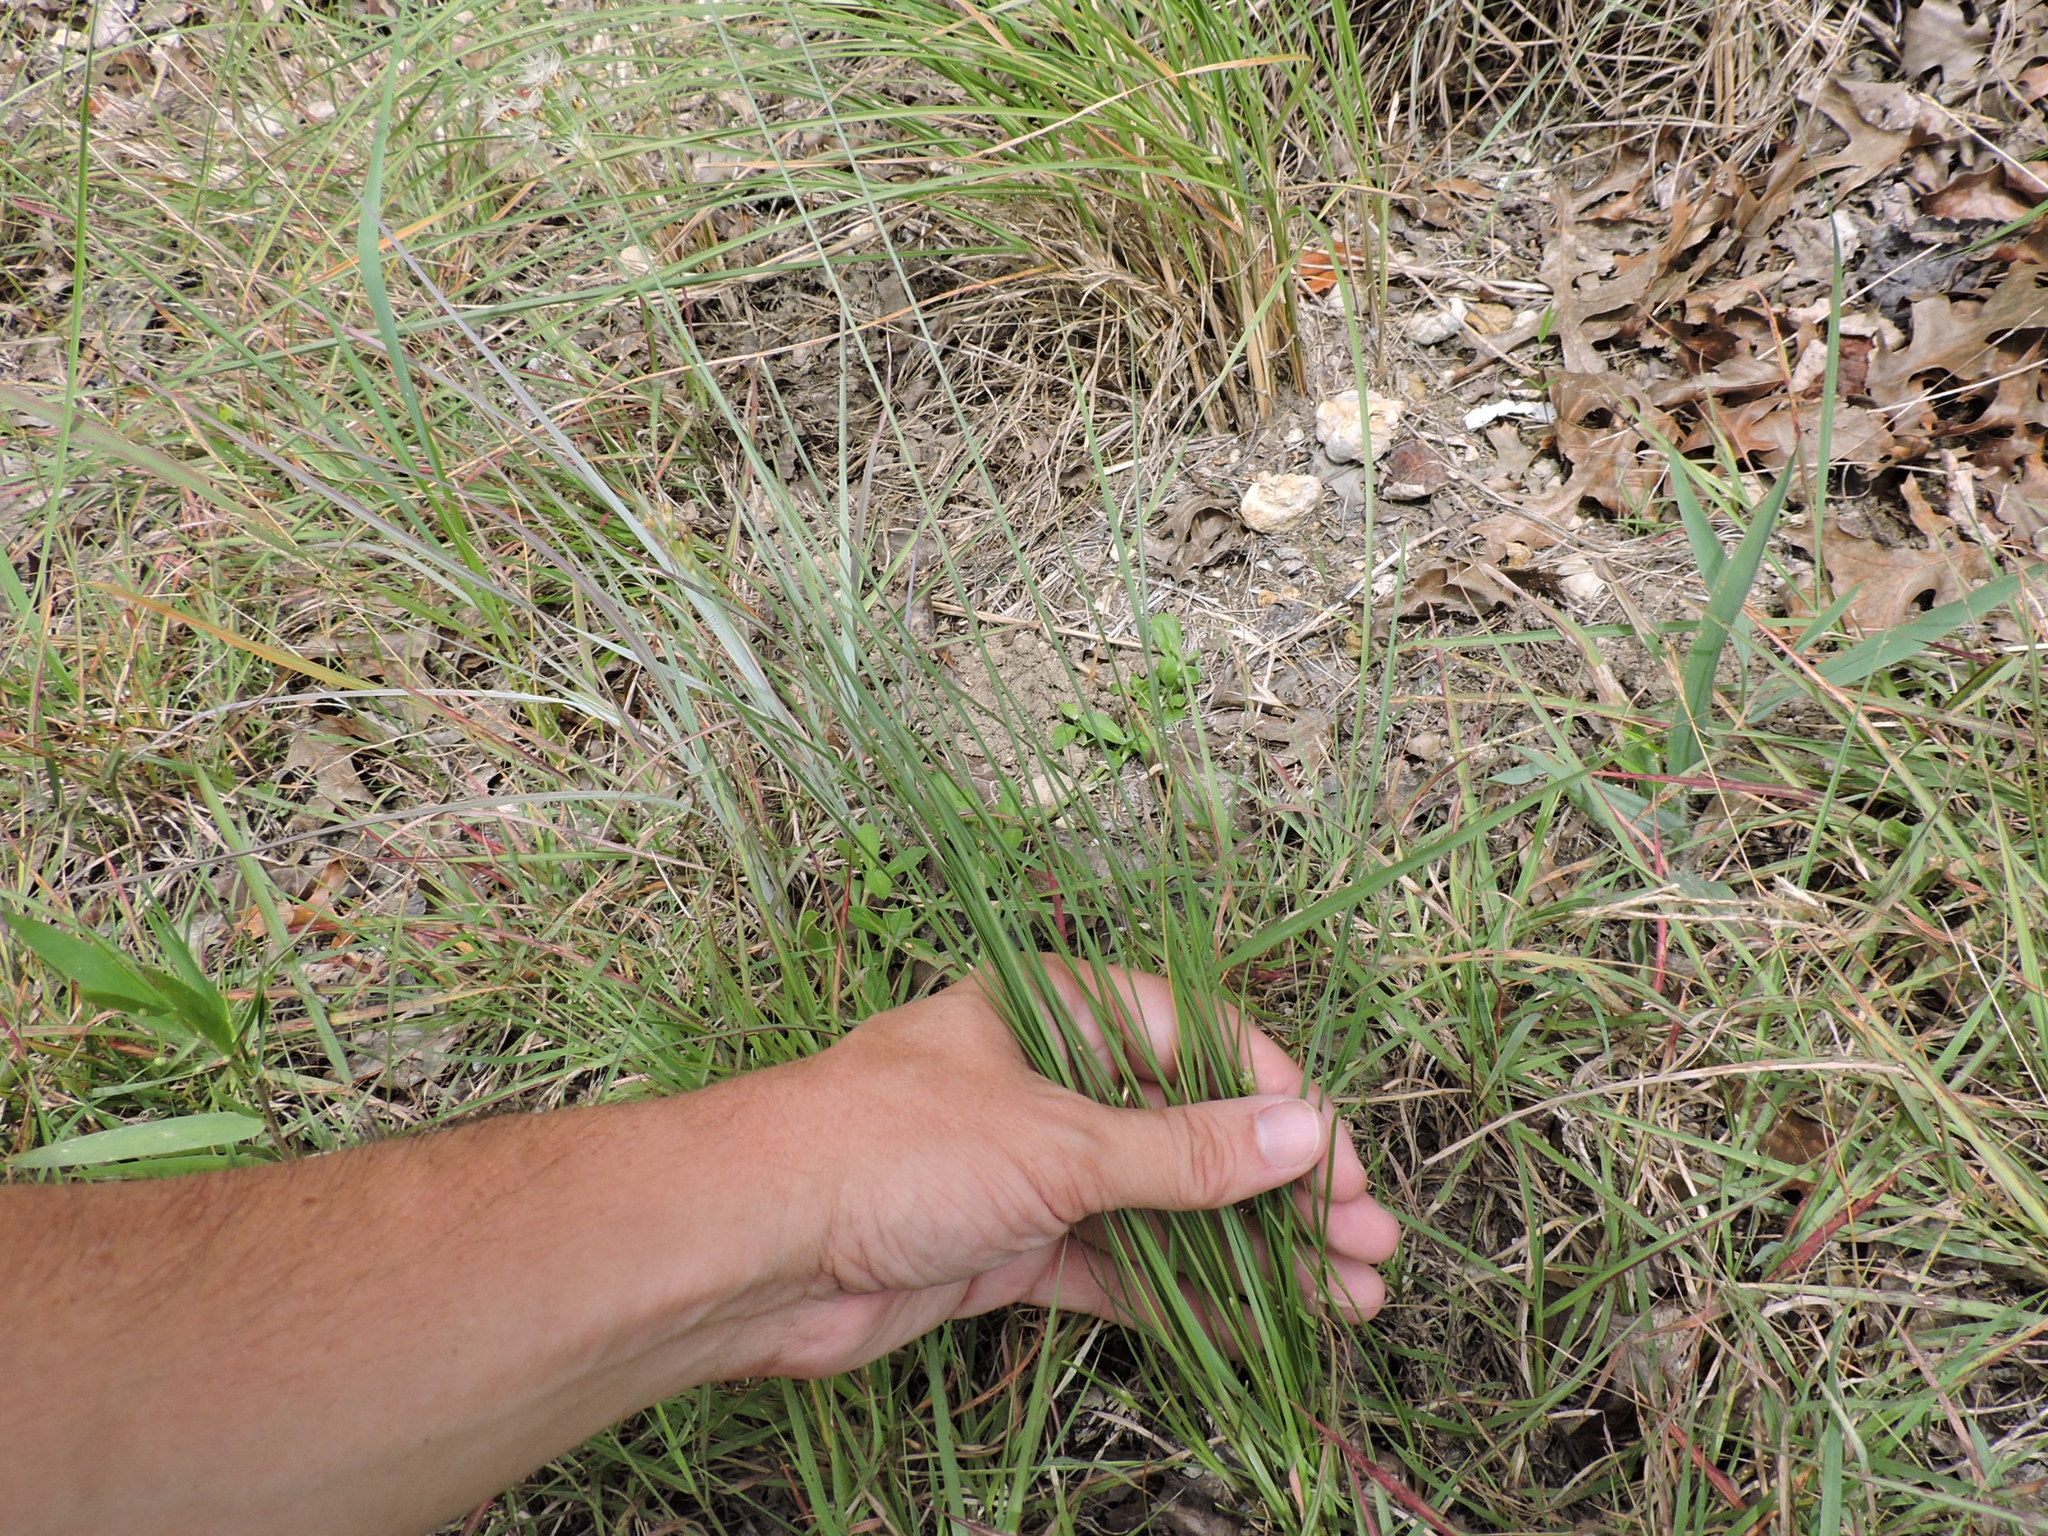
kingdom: Plantae
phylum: Tracheophyta
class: Liliopsida
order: Poales
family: Cyperaceae
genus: Fimbristylis
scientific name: Fimbristylis puberula
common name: Hairy fimbristylis
